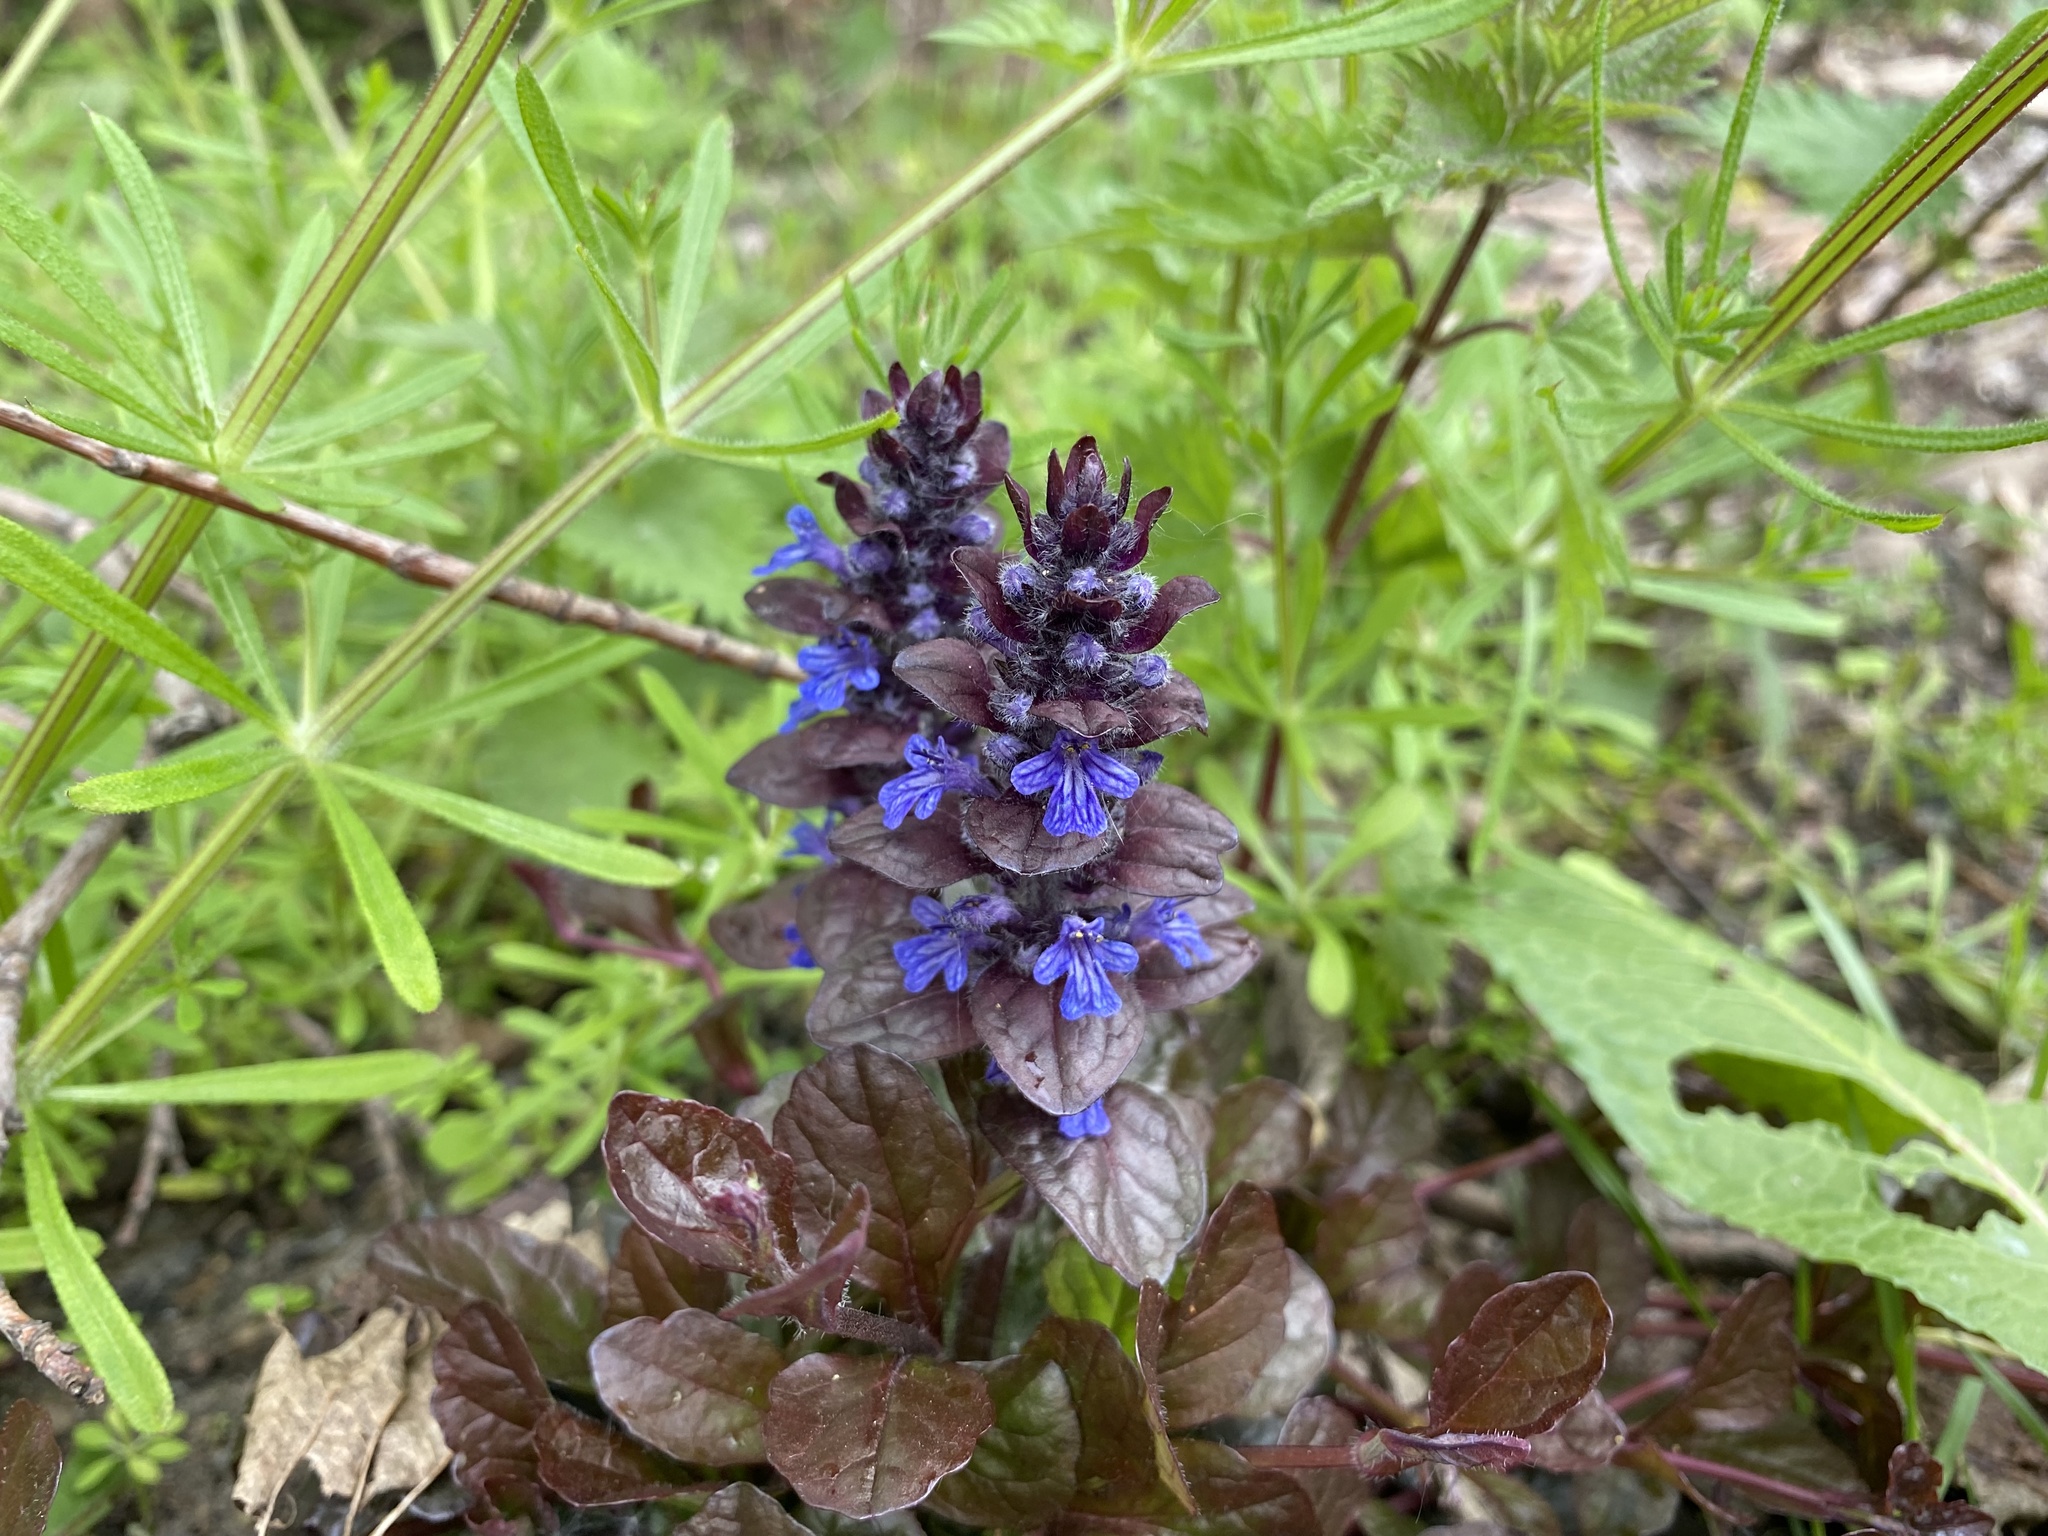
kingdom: Plantae
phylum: Tracheophyta
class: Magnoliopsida
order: Lamiales
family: Lamiaceae
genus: Ajuga
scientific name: Ajuga reptans
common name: Bugle
